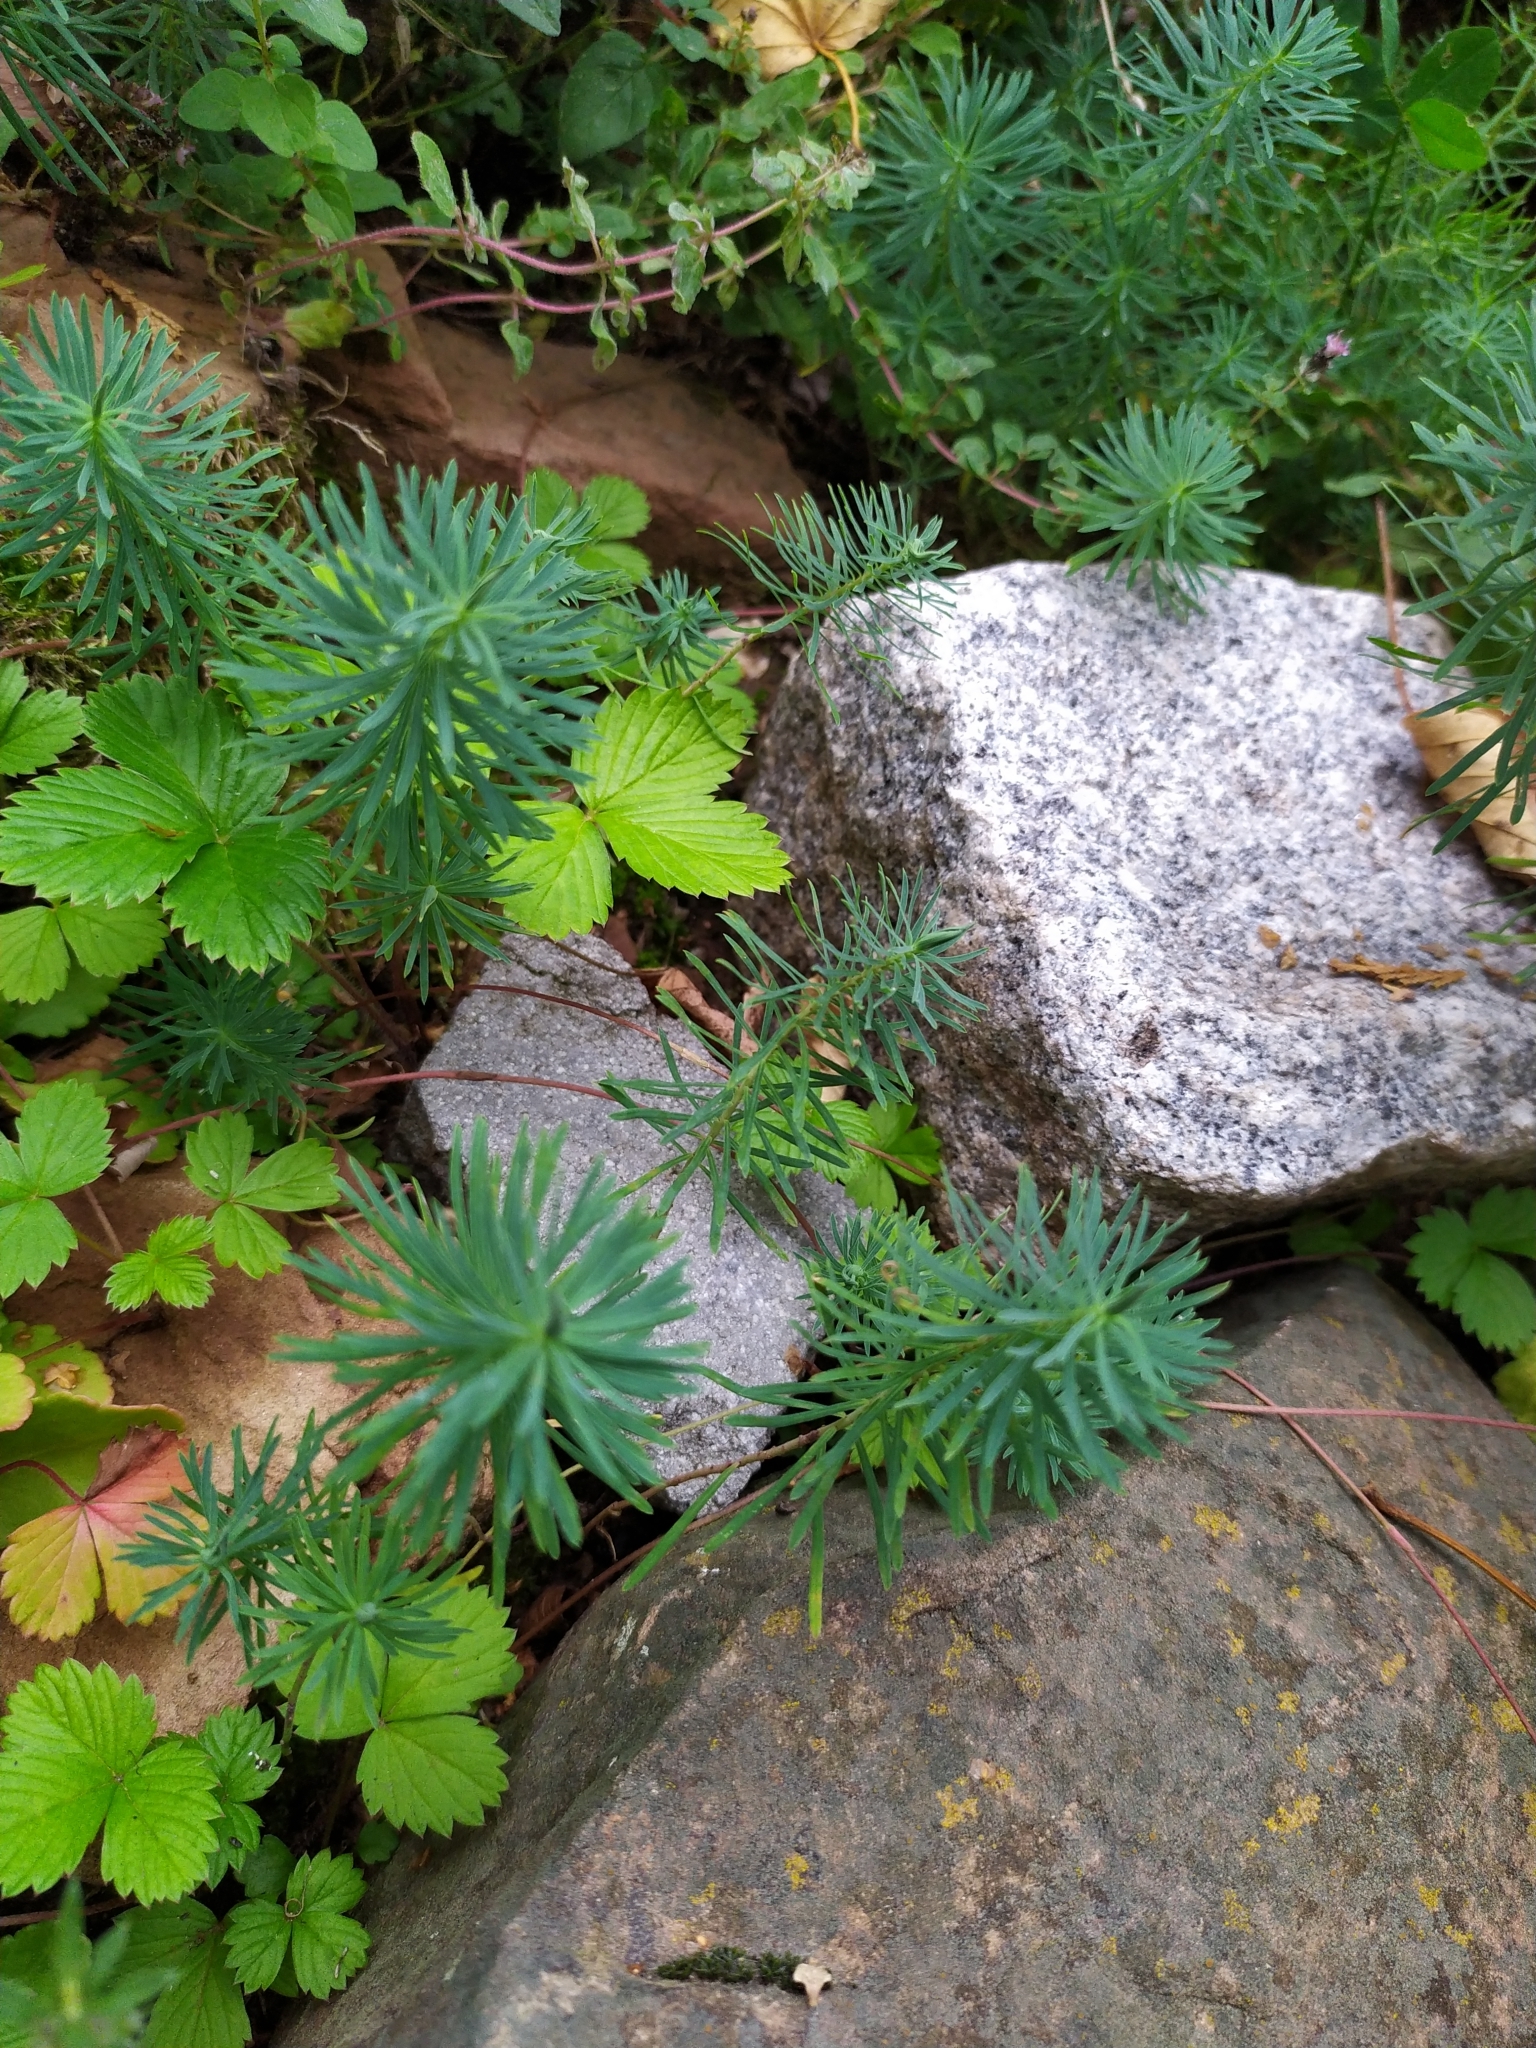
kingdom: Plantae
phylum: Tracheophyta
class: Magnoliopsida
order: Malpighiales
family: Euphorbiaceae
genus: Euphorbia
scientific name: Euphorbia cyparissias
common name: Cypress spurge
